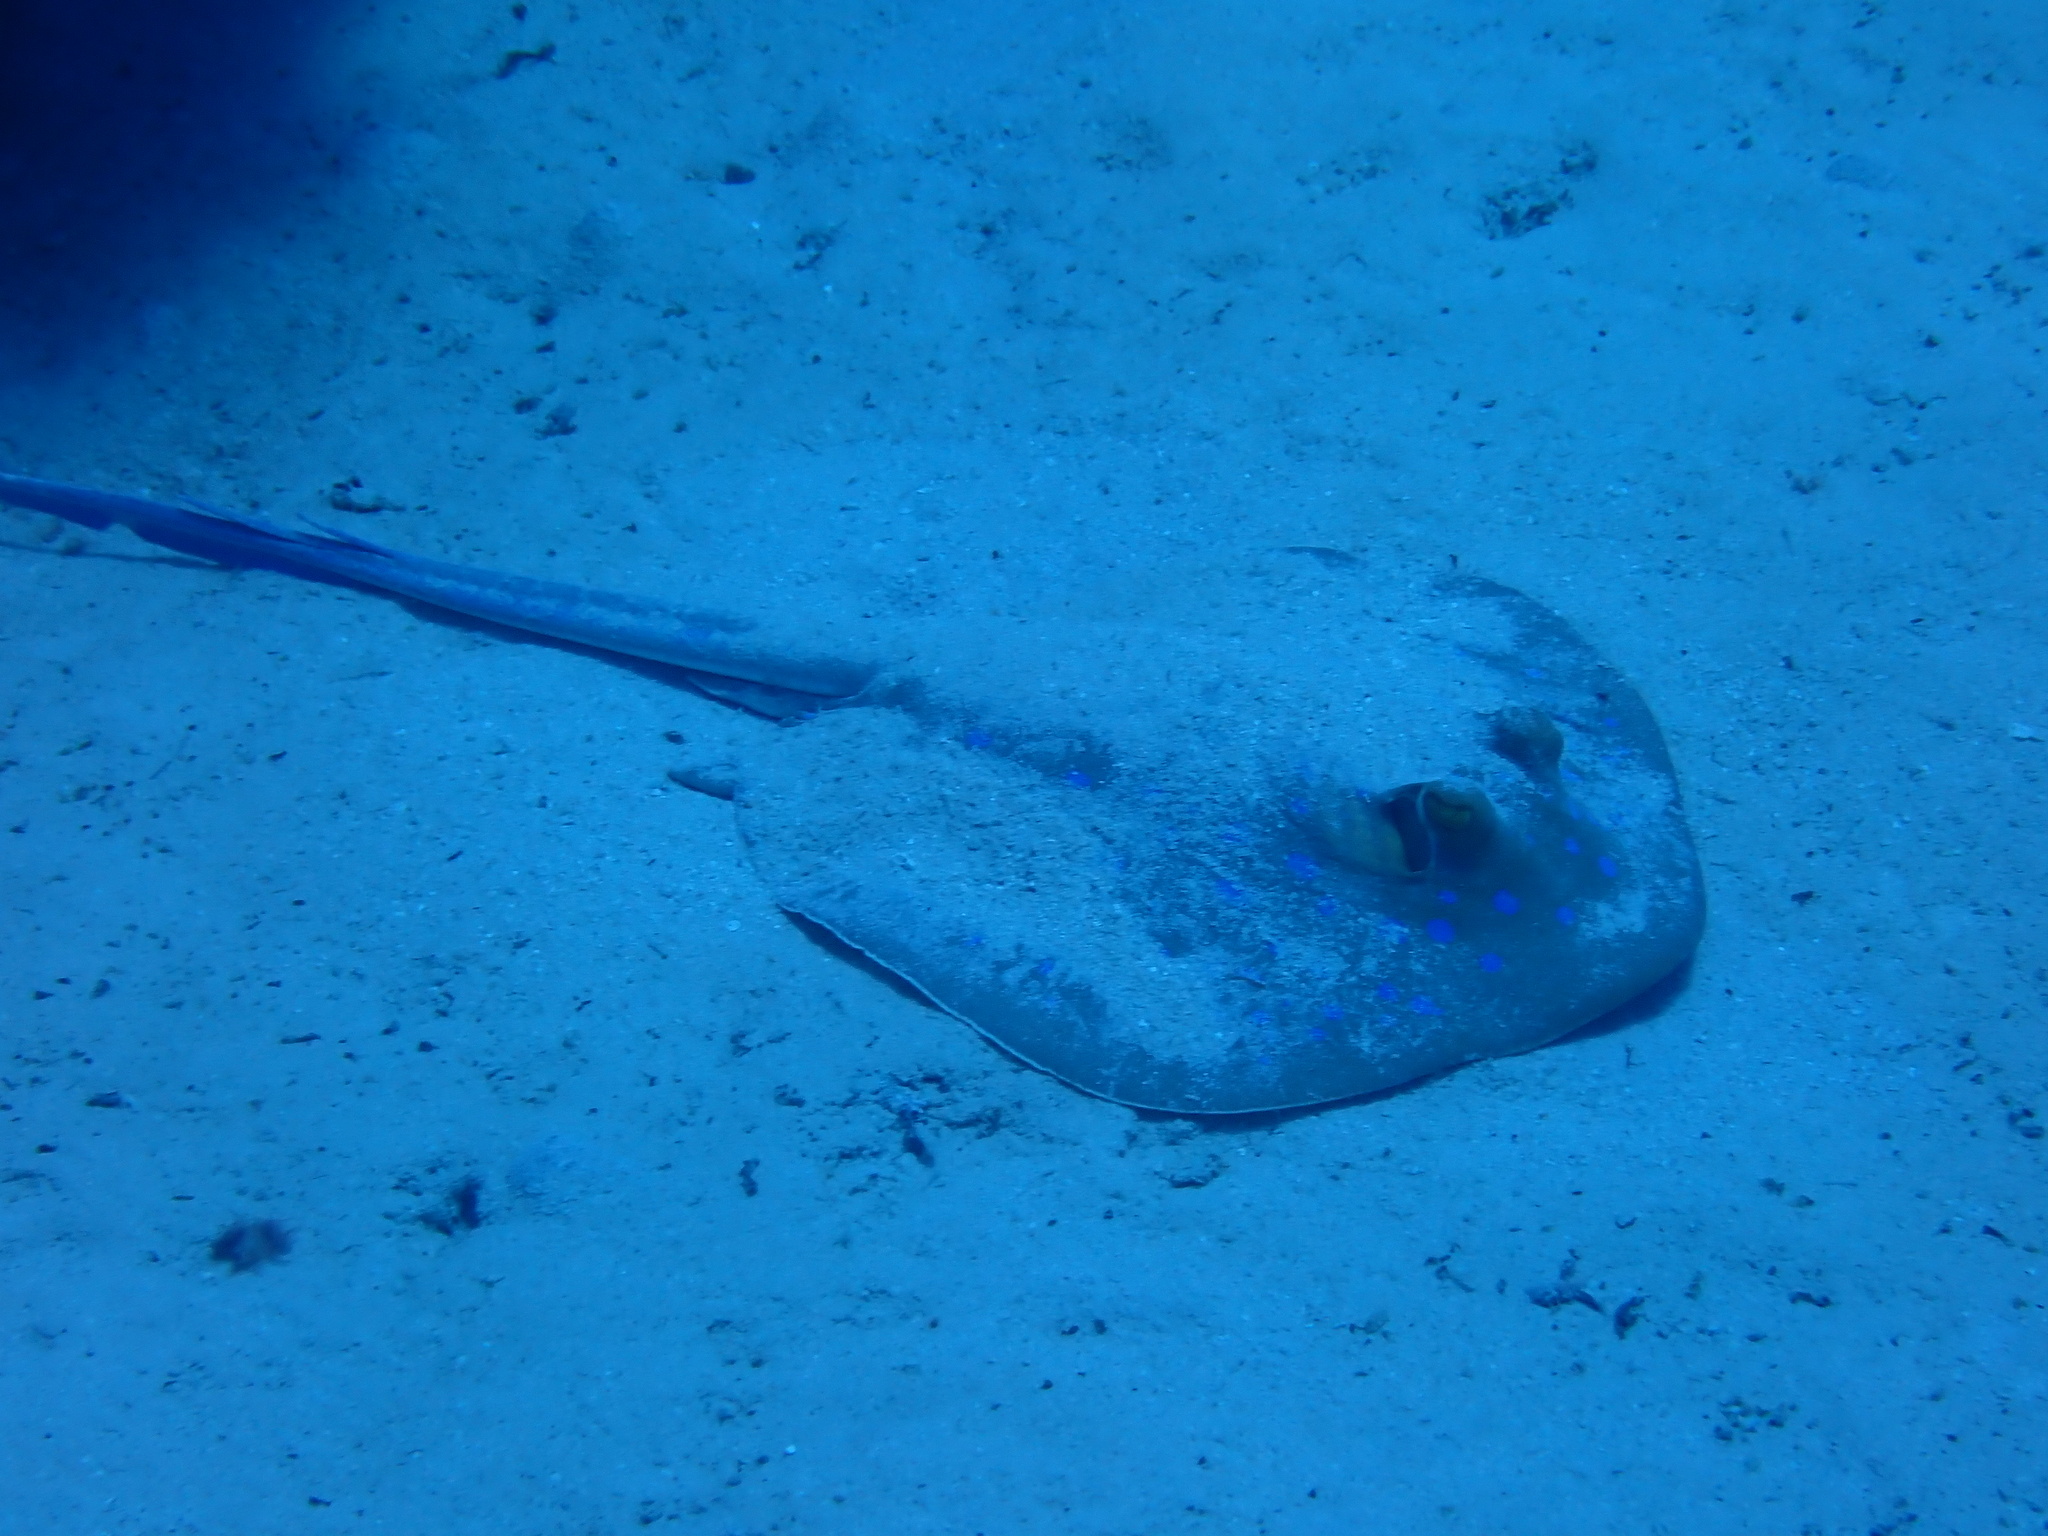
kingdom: Animalia
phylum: Chordata
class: Elasmobranchii
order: Myliobatiformes
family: Dasyatidae
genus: Taeniura
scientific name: Taeniura lymma
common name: Bluespotted ribbontail ray
